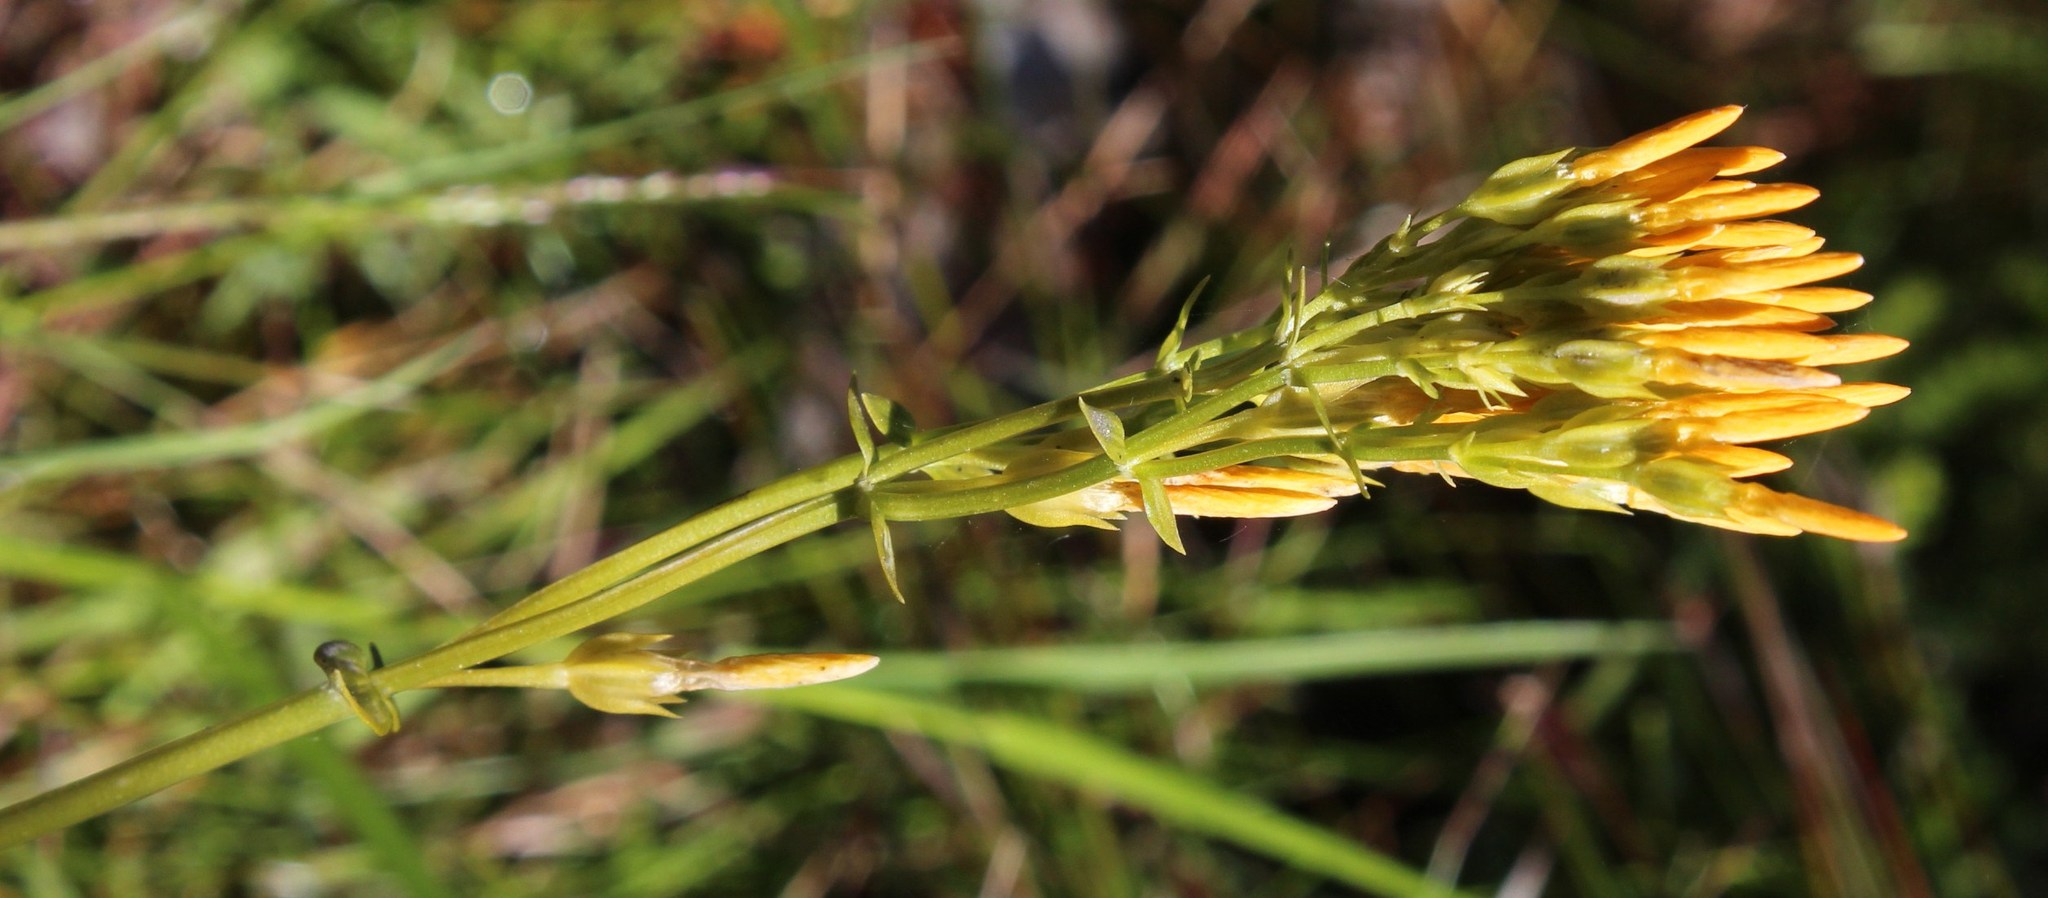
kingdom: Plantae
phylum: Tracheophyta
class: Magnoliopsida
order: Gentianales
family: Gentianaceae
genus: Sebaea
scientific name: Sebaea stricta
